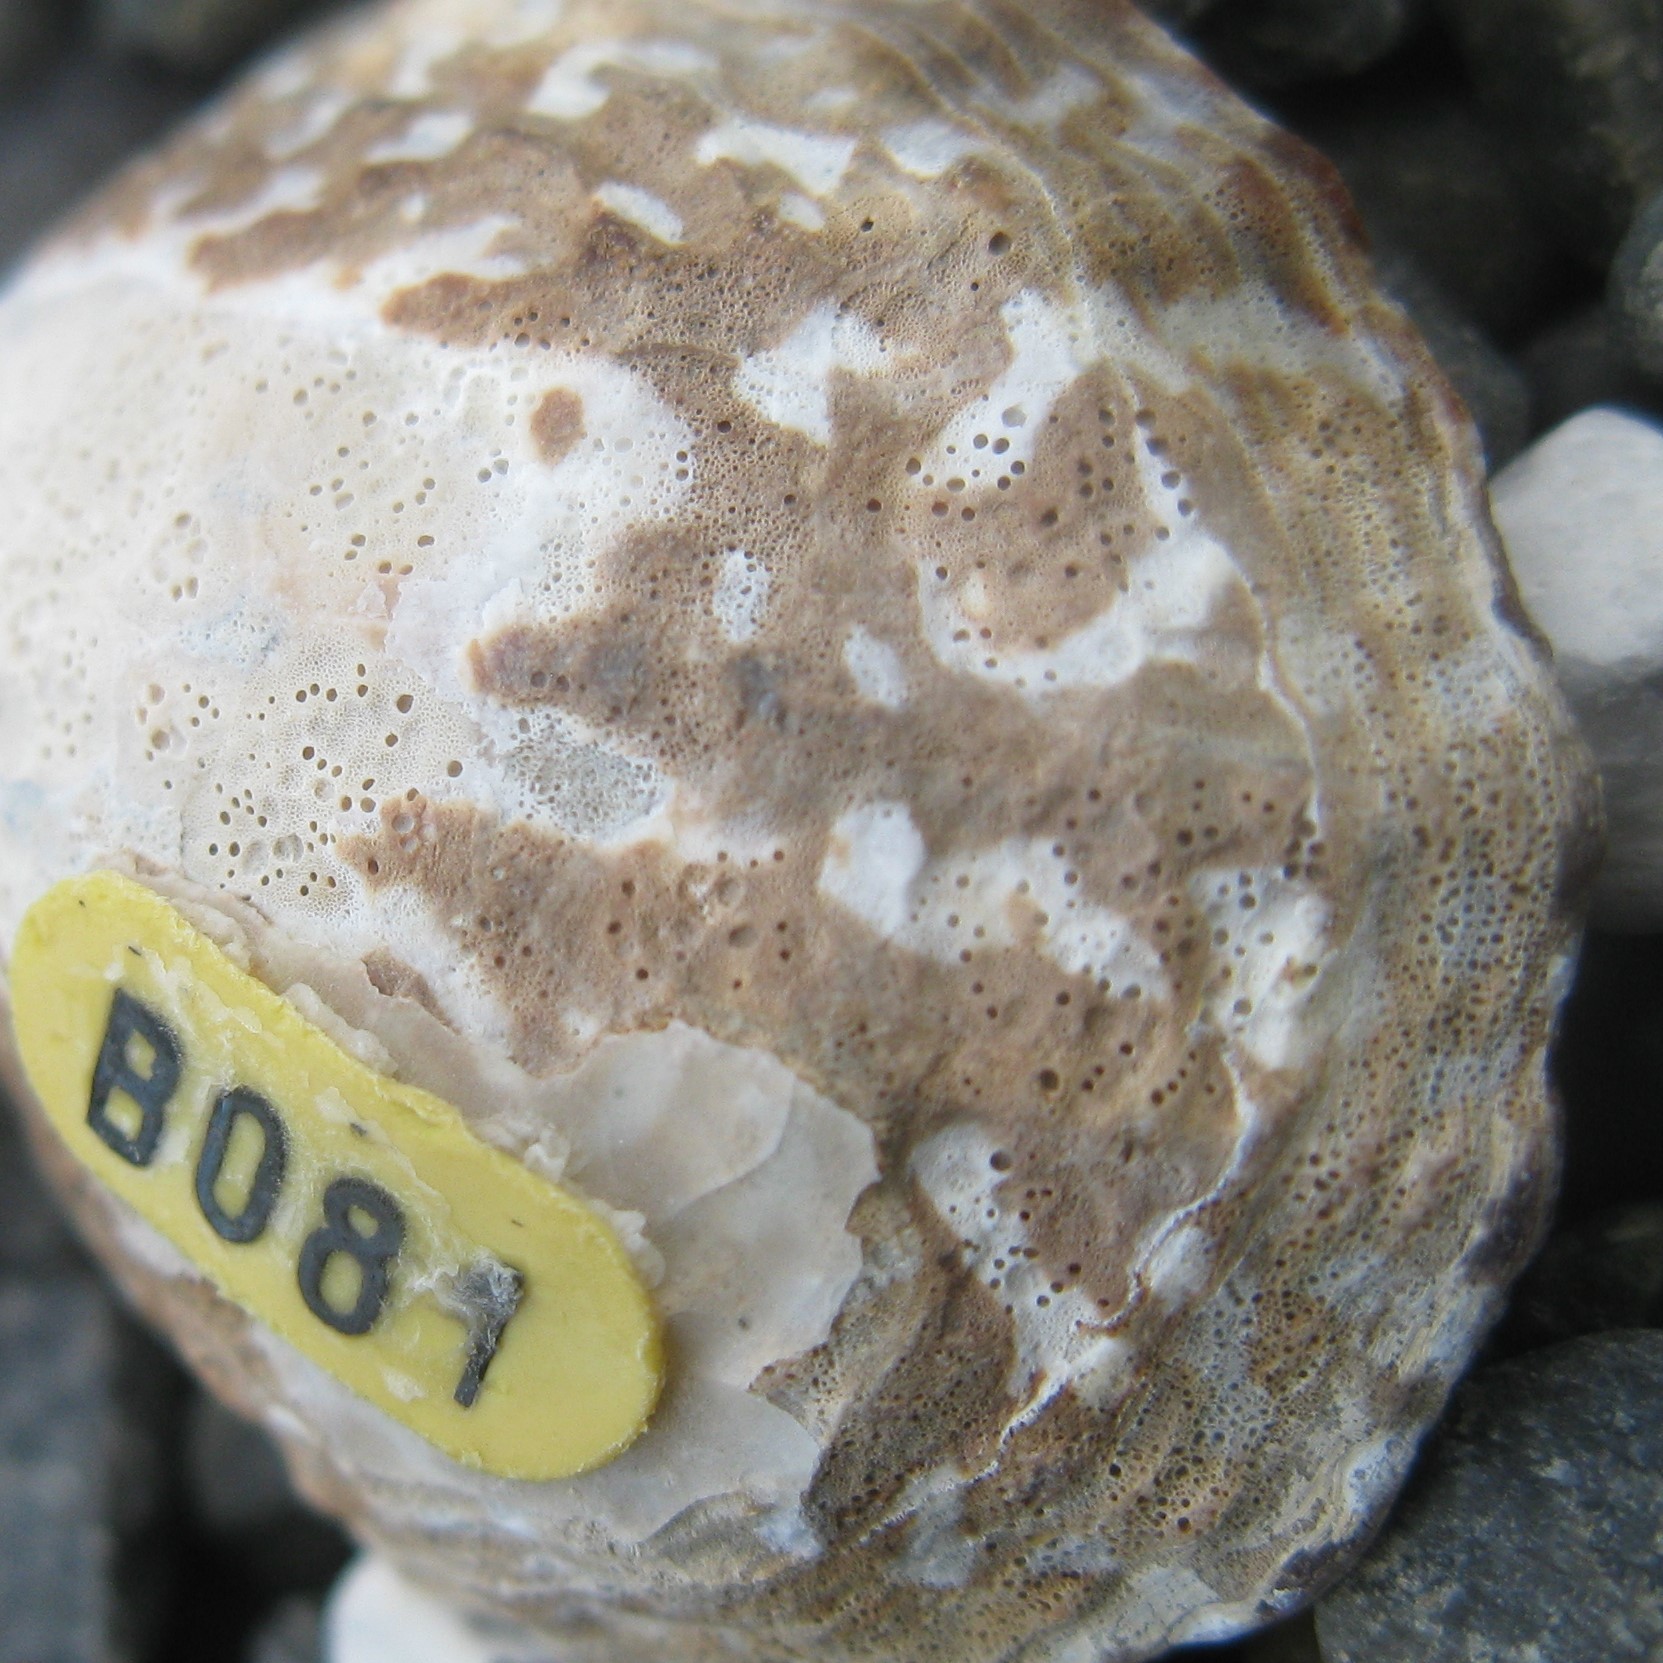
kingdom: Animalia
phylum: Mollusca
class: Gastropoda
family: Nacellidae
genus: Cellana
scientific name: Cellana denticulata
